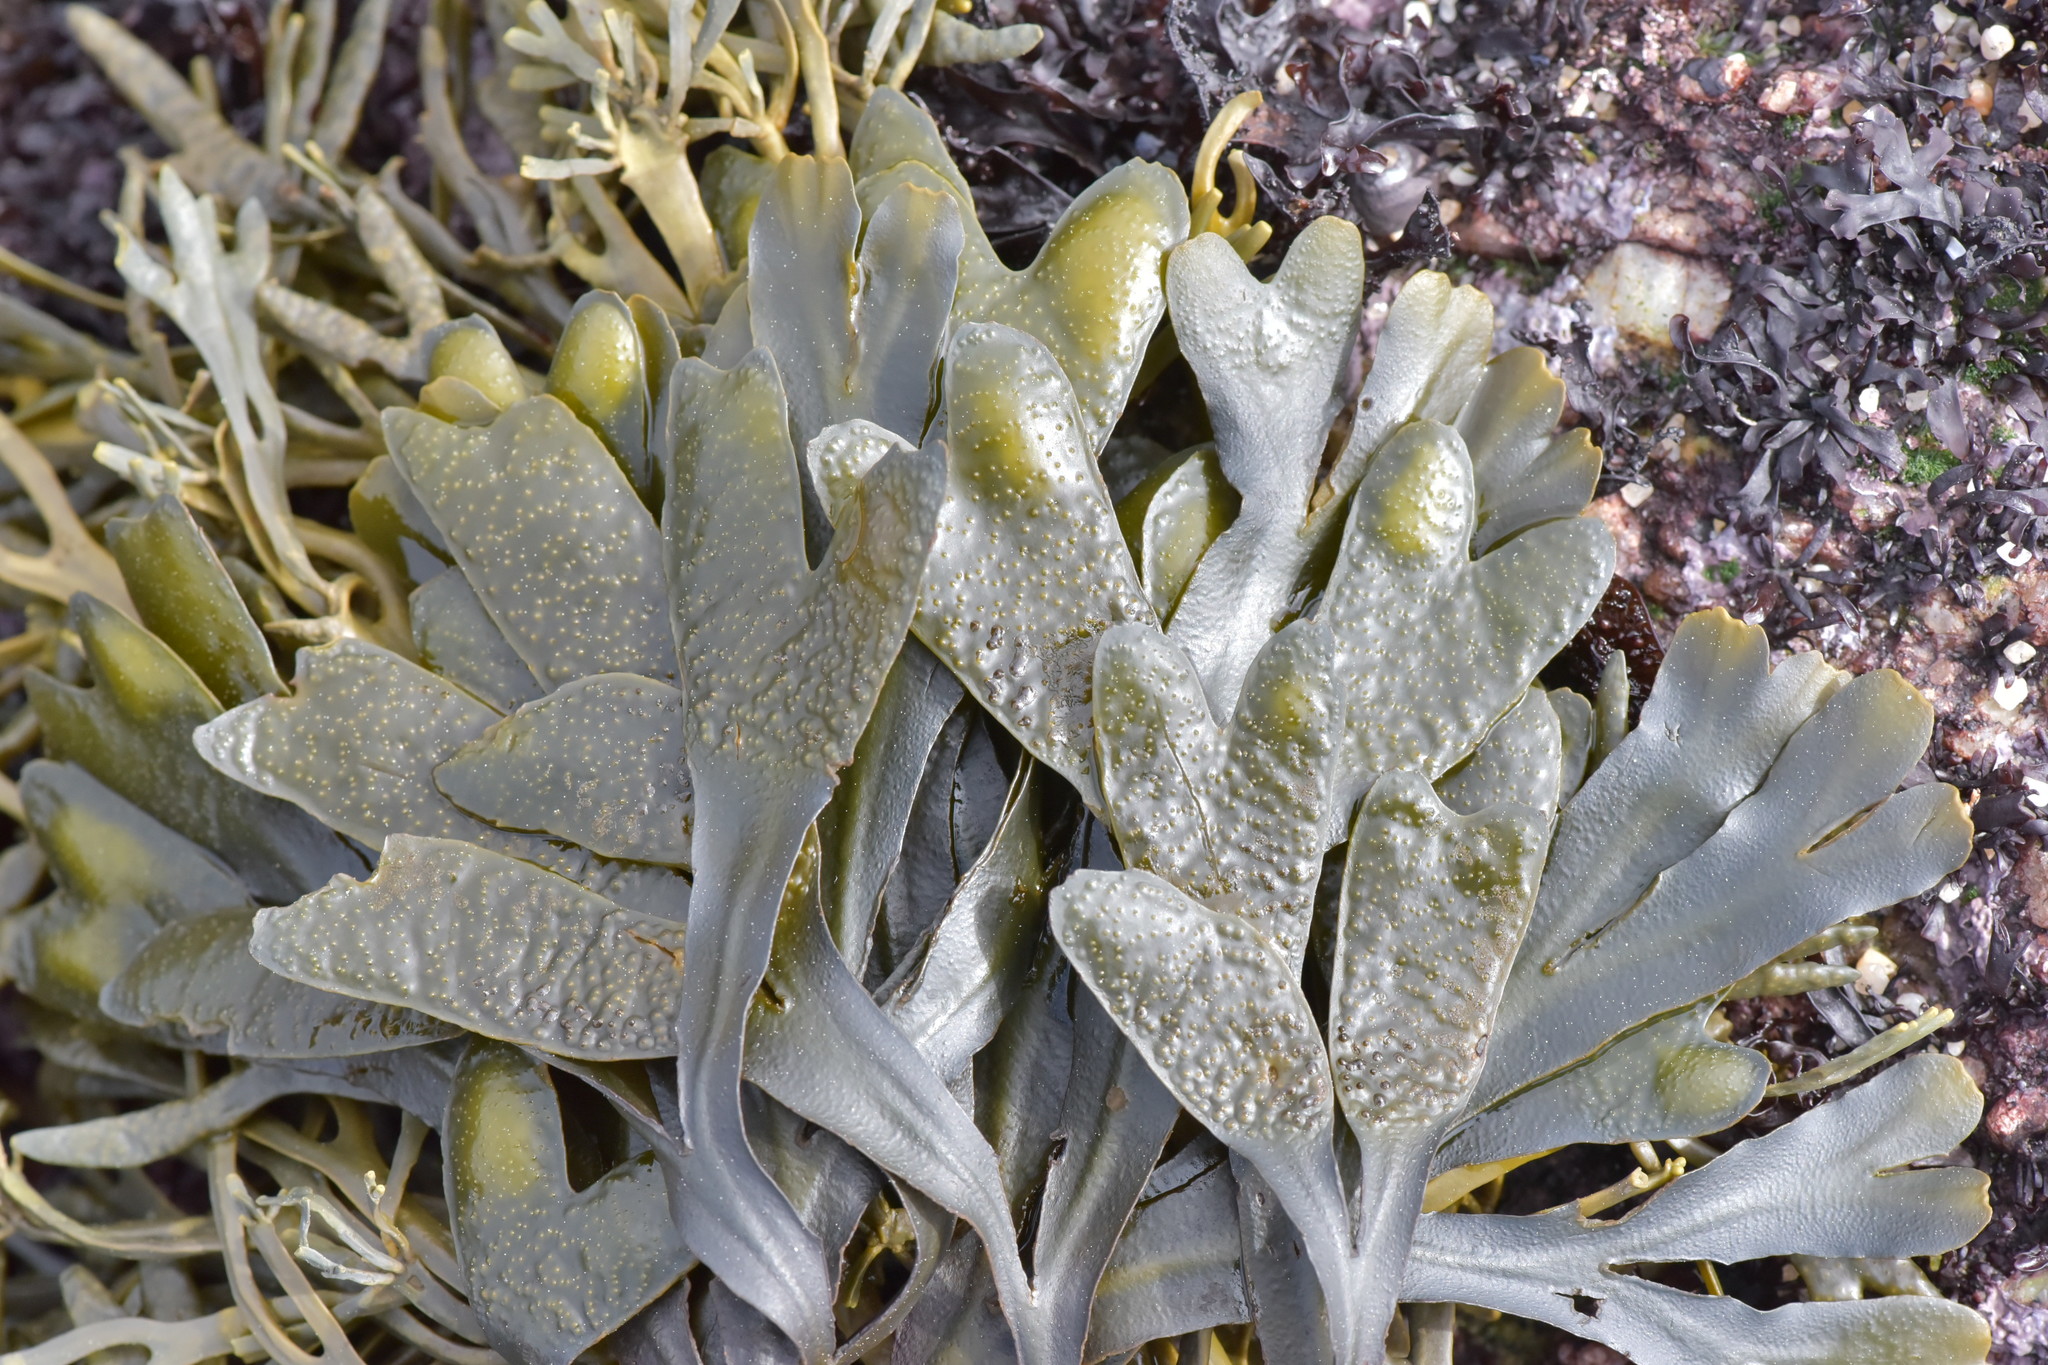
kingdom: Chromista
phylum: Ochrophyta
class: Phaeophyceae
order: Fucales
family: Fucaceae
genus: Fucus
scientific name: Fucus distichus
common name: Rockweed
